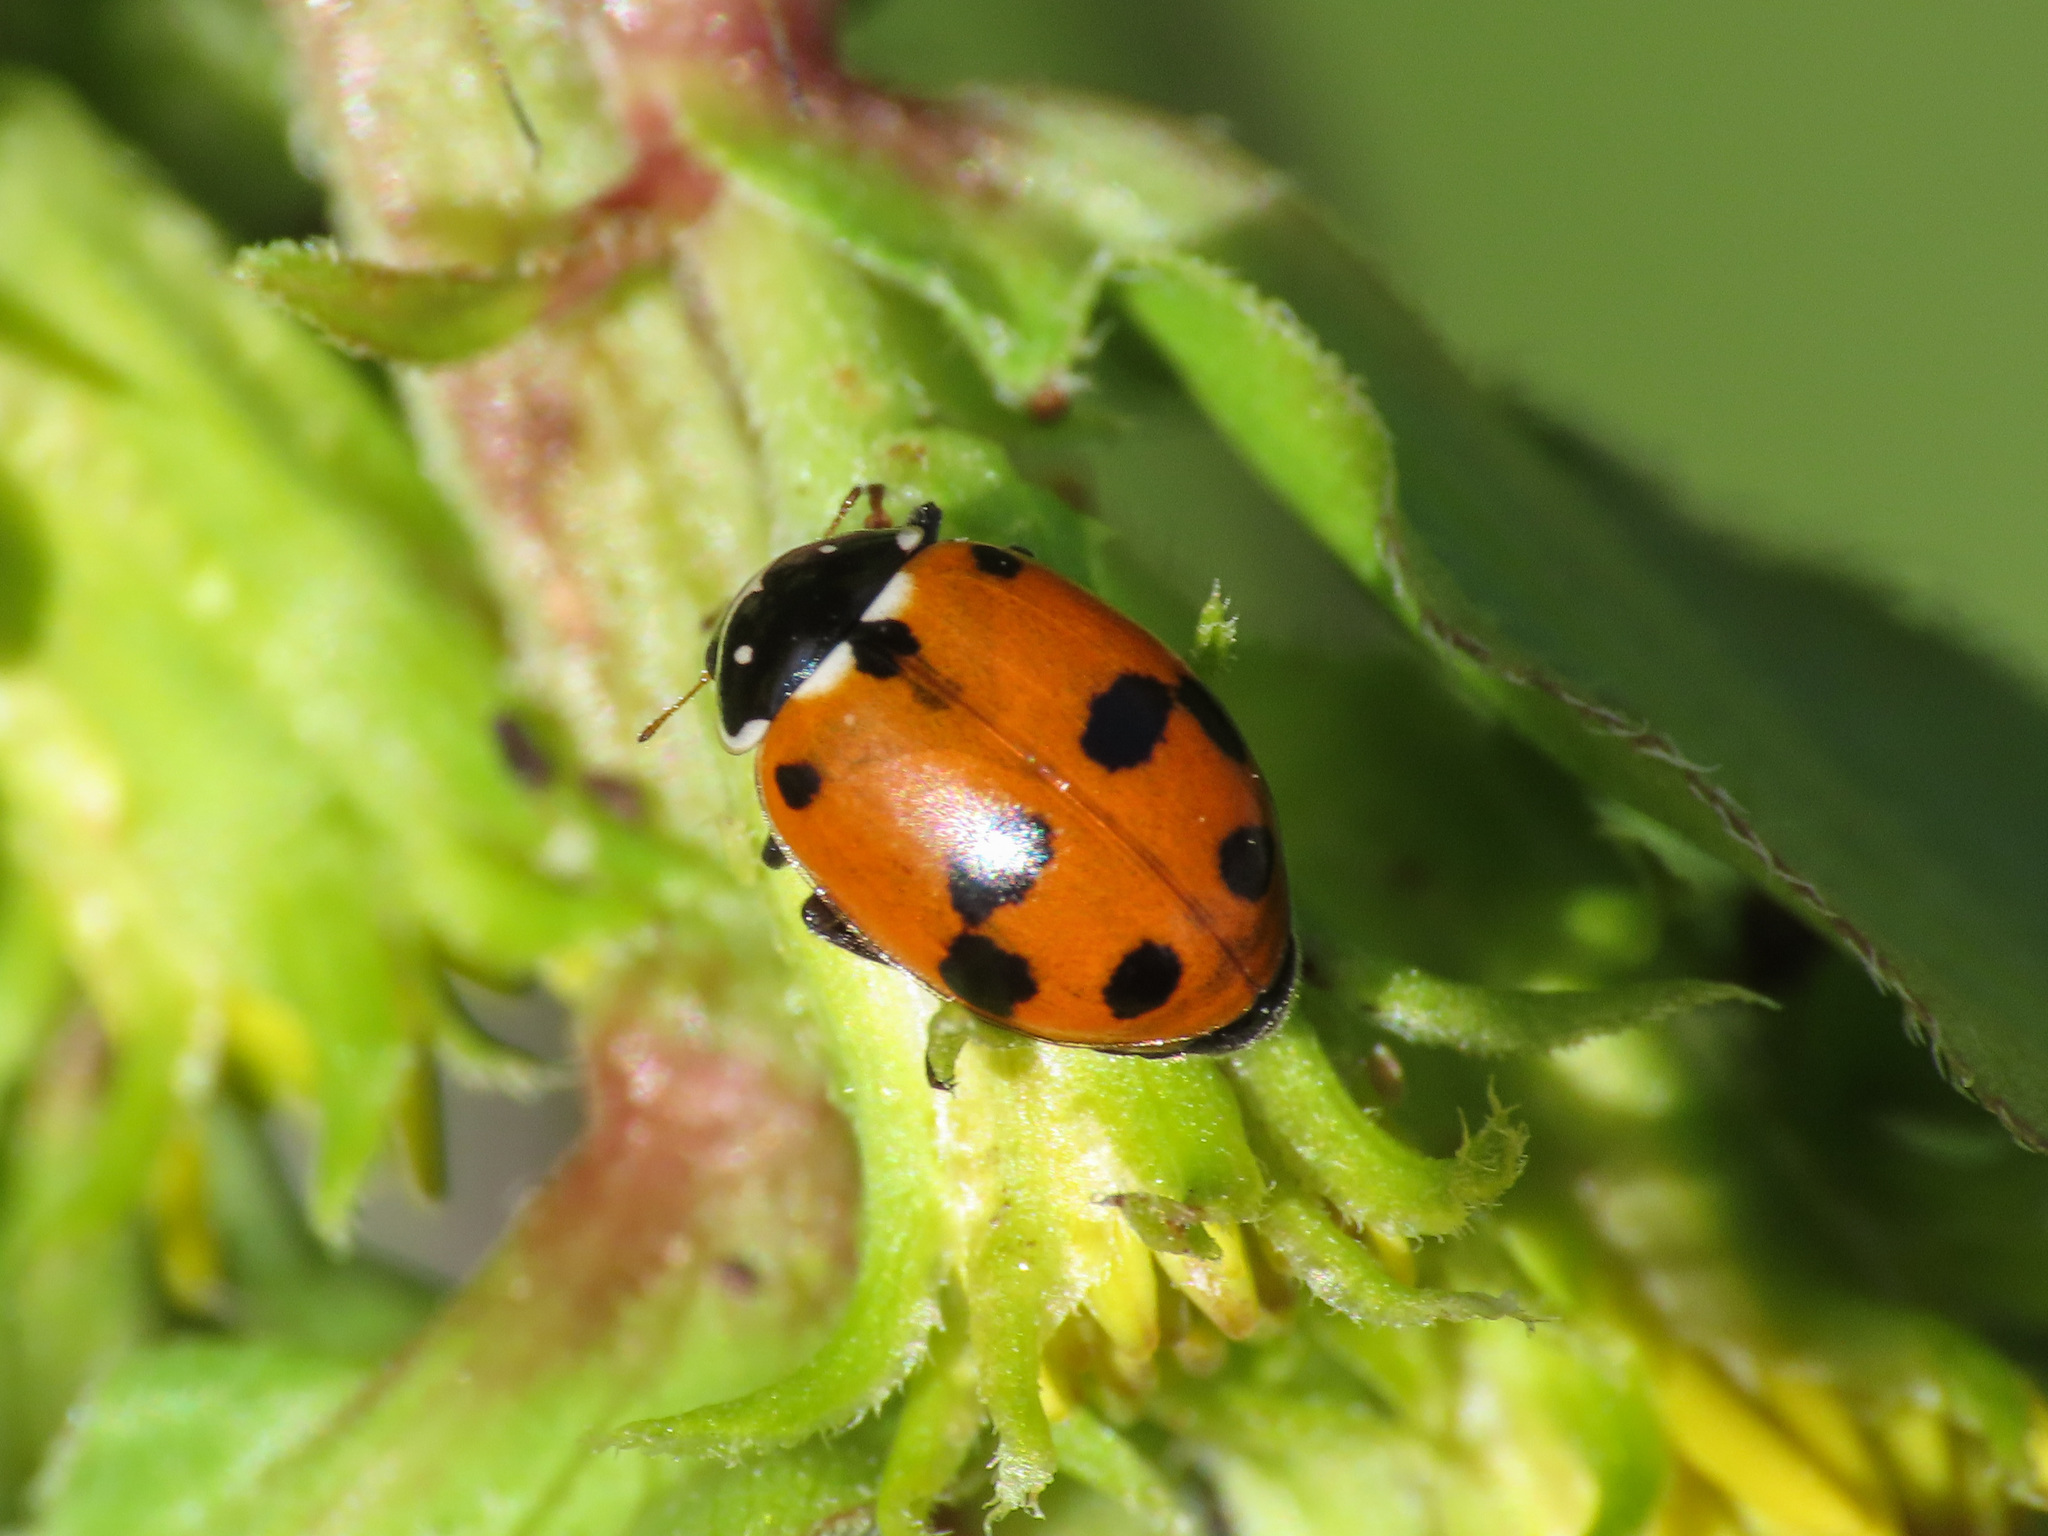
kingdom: Animalia
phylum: Arthropoda
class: Insecta
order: Coleoptera
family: Coccinellidae
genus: Hippodamia
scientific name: Hippodamia variegata
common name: Ladybird beetle
